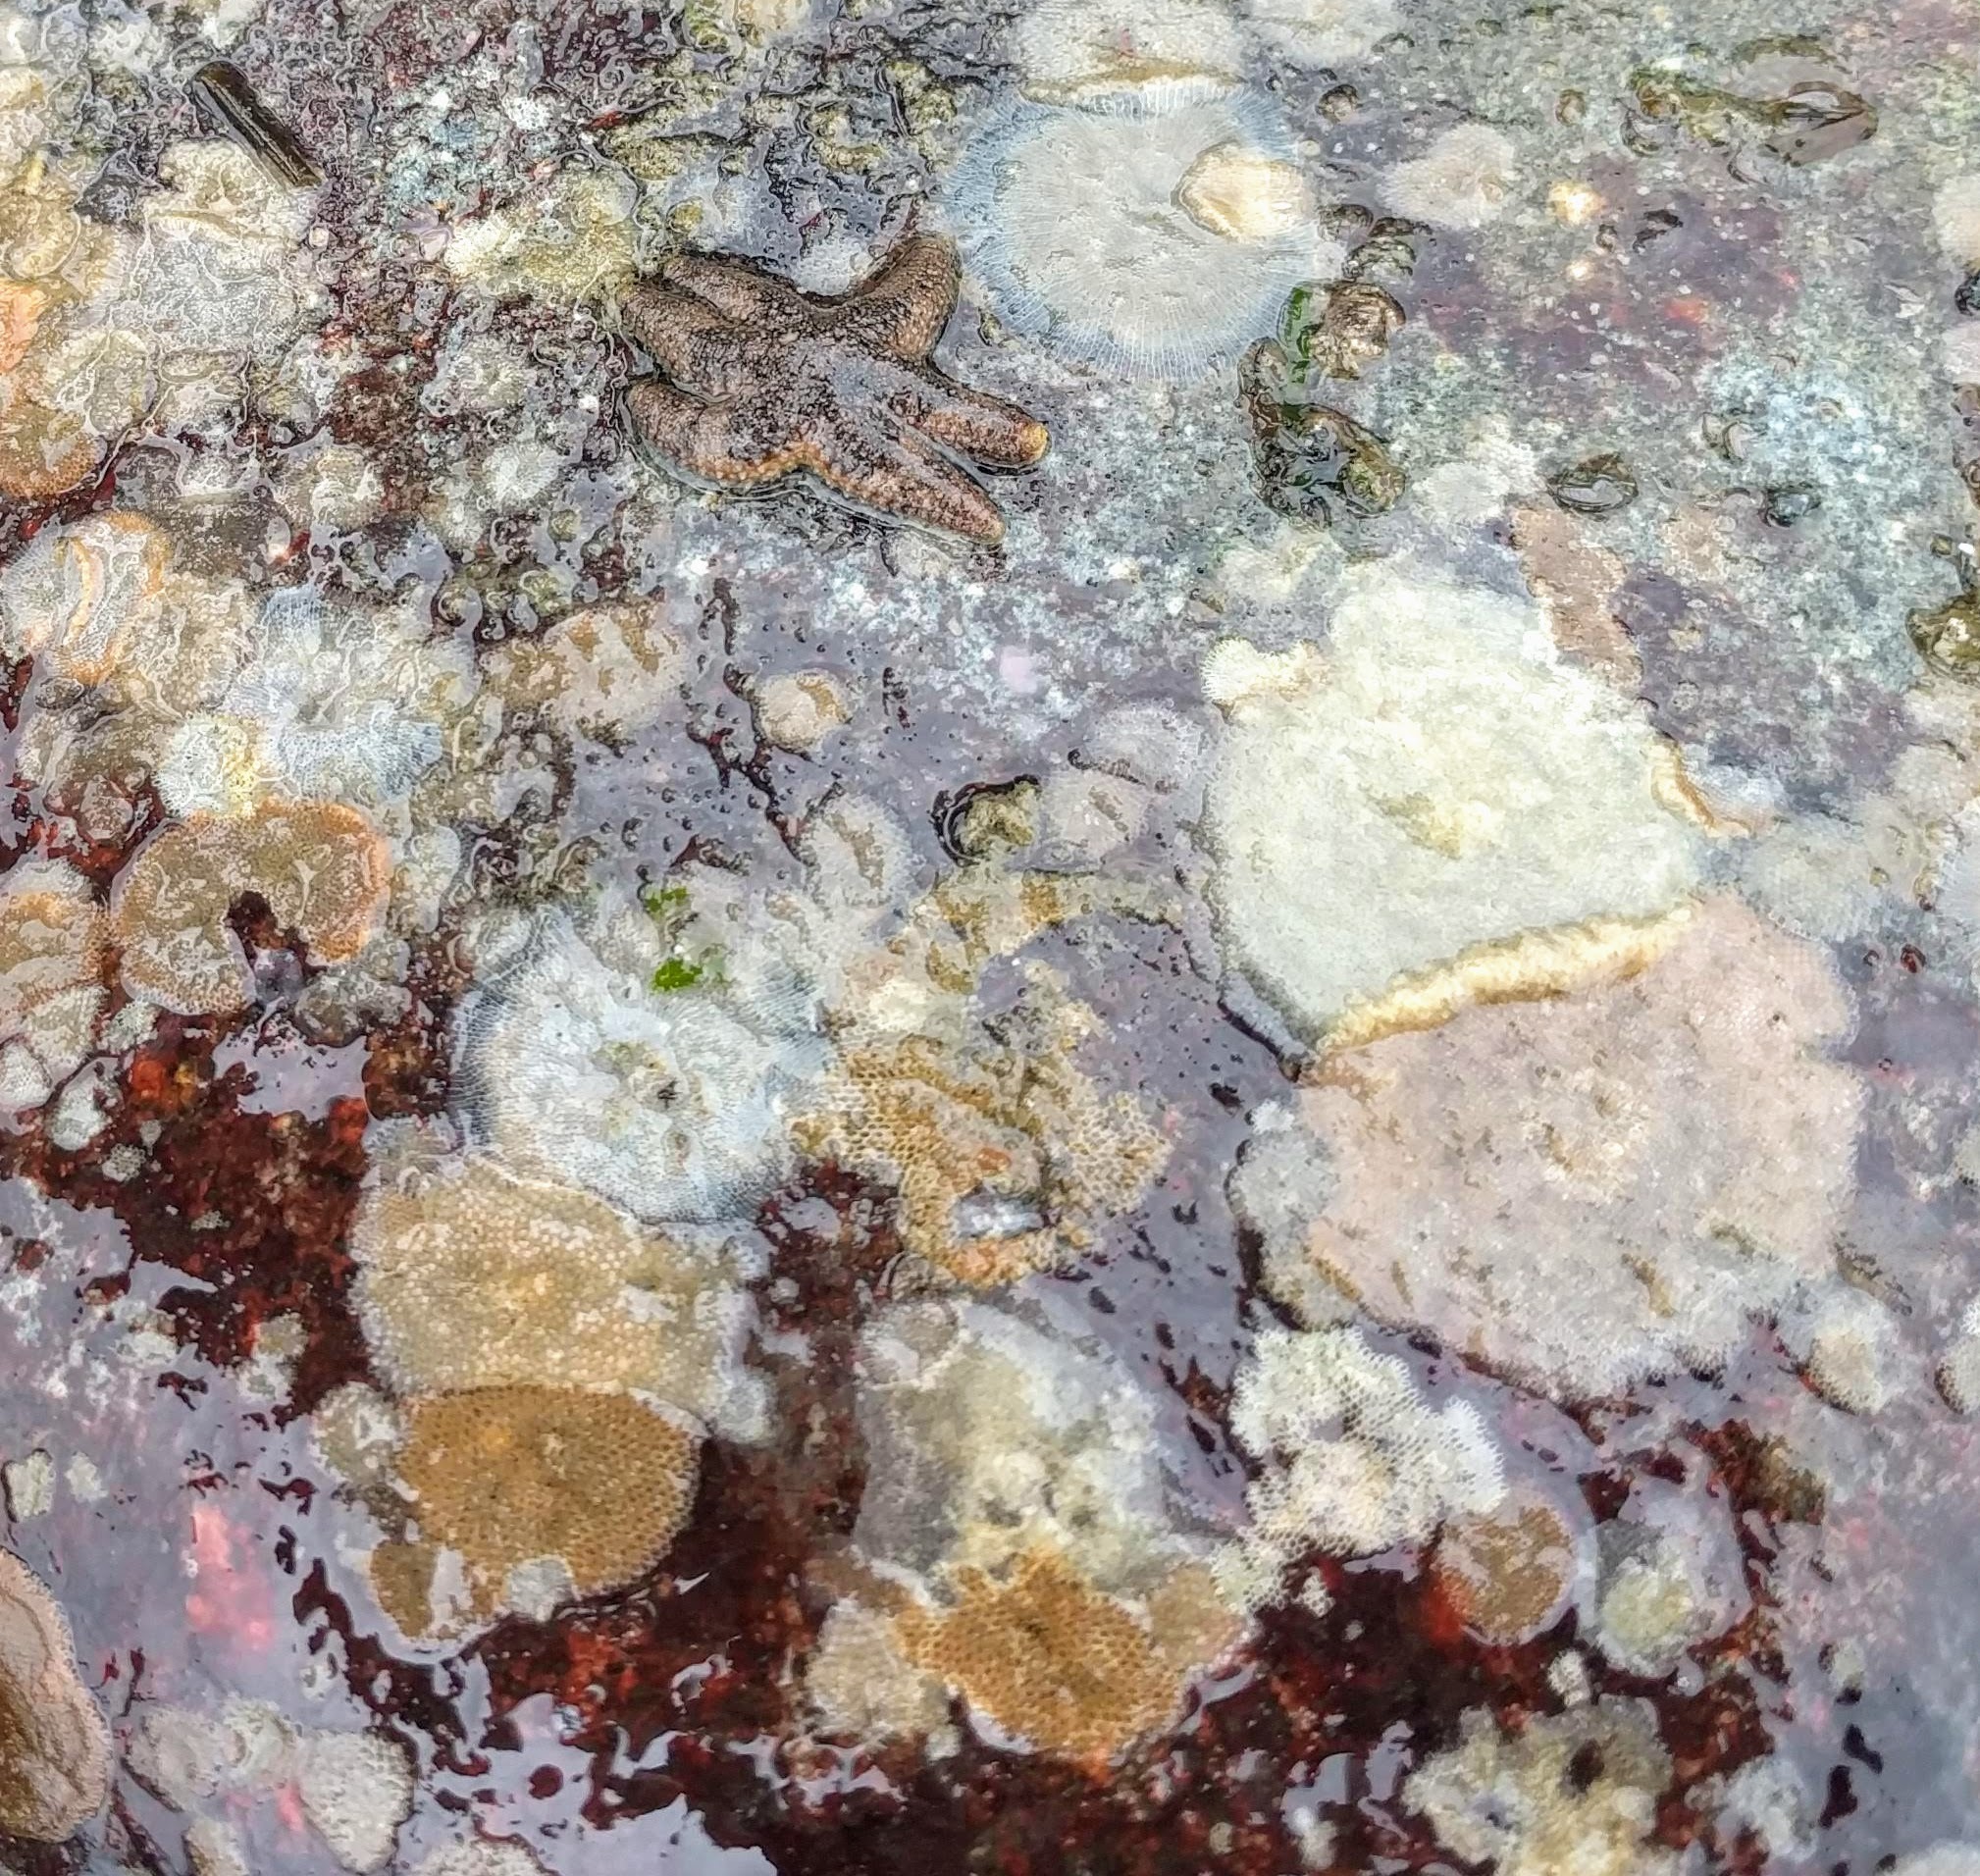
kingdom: Animalia
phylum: Echinodermata
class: Asteroidea
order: Forcipulatida
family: Asteriidae
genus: Leptasterias
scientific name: Leptasterias hexactis
